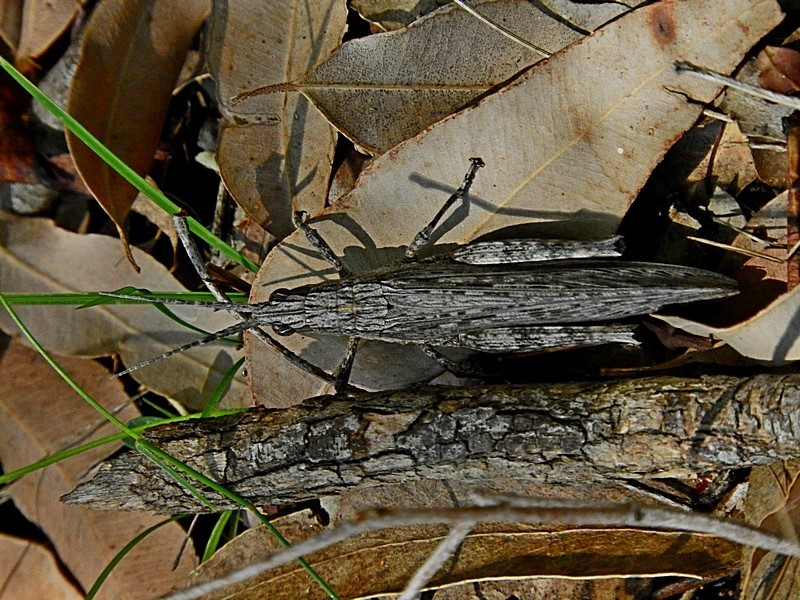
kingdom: Animalia
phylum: Arthropoda
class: Insecta
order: Orthoptera
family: Acrididae
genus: Coryphistes
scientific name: Coryphistes ruricola
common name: Bark-mimicking grasshopper
